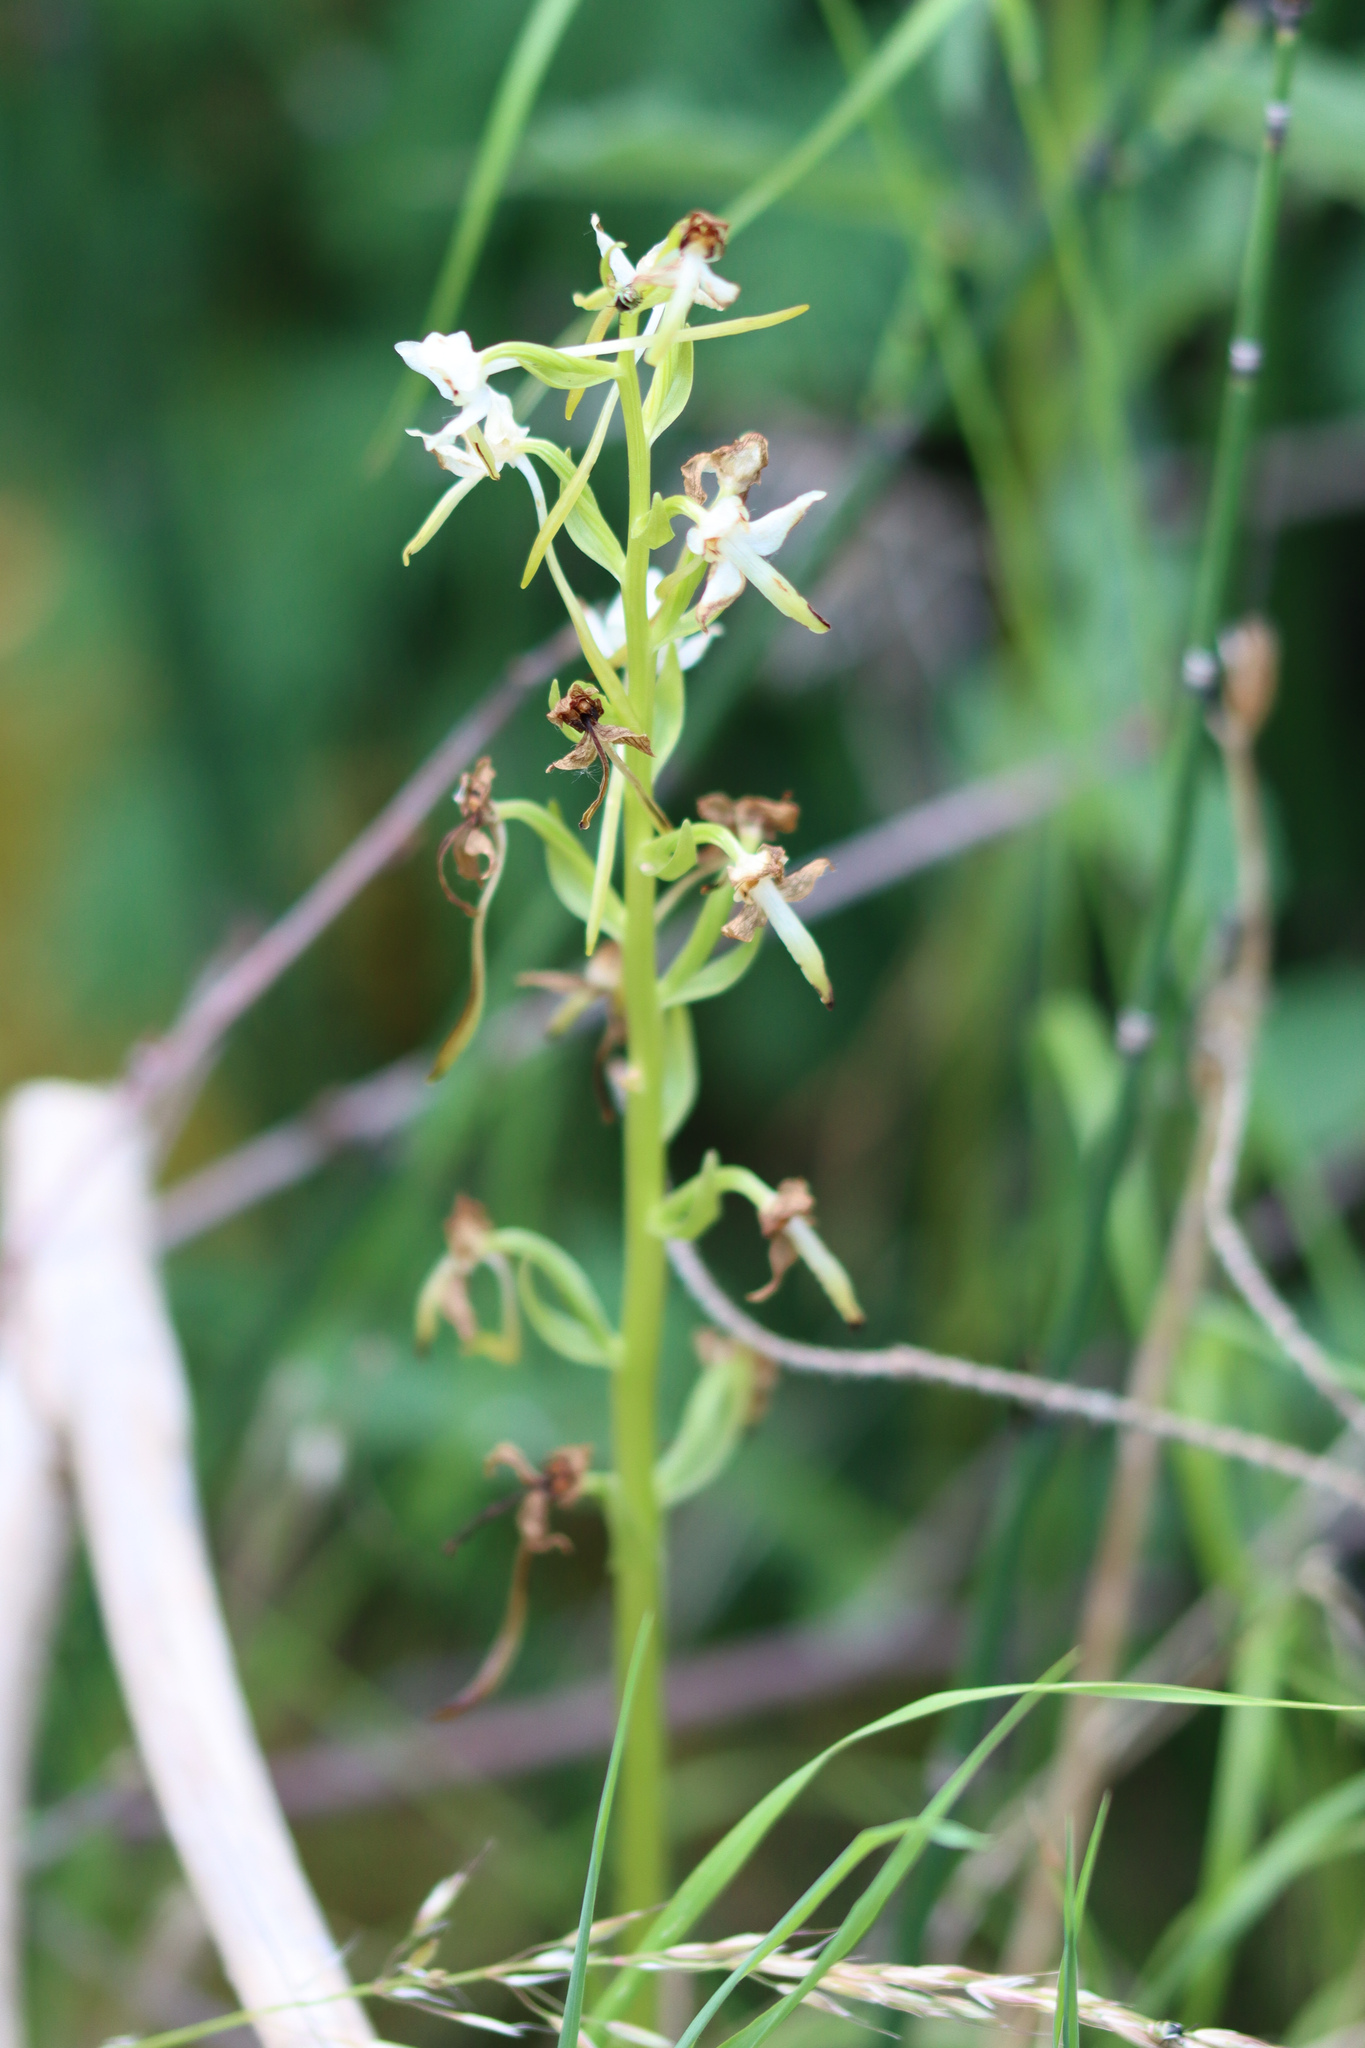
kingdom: Plantae
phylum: Tracheophyta
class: Liliopsida
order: Asparagales
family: Orchidaceae
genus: Platanthera
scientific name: Platanthera chlorantha
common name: Greater butterfly-orchid
